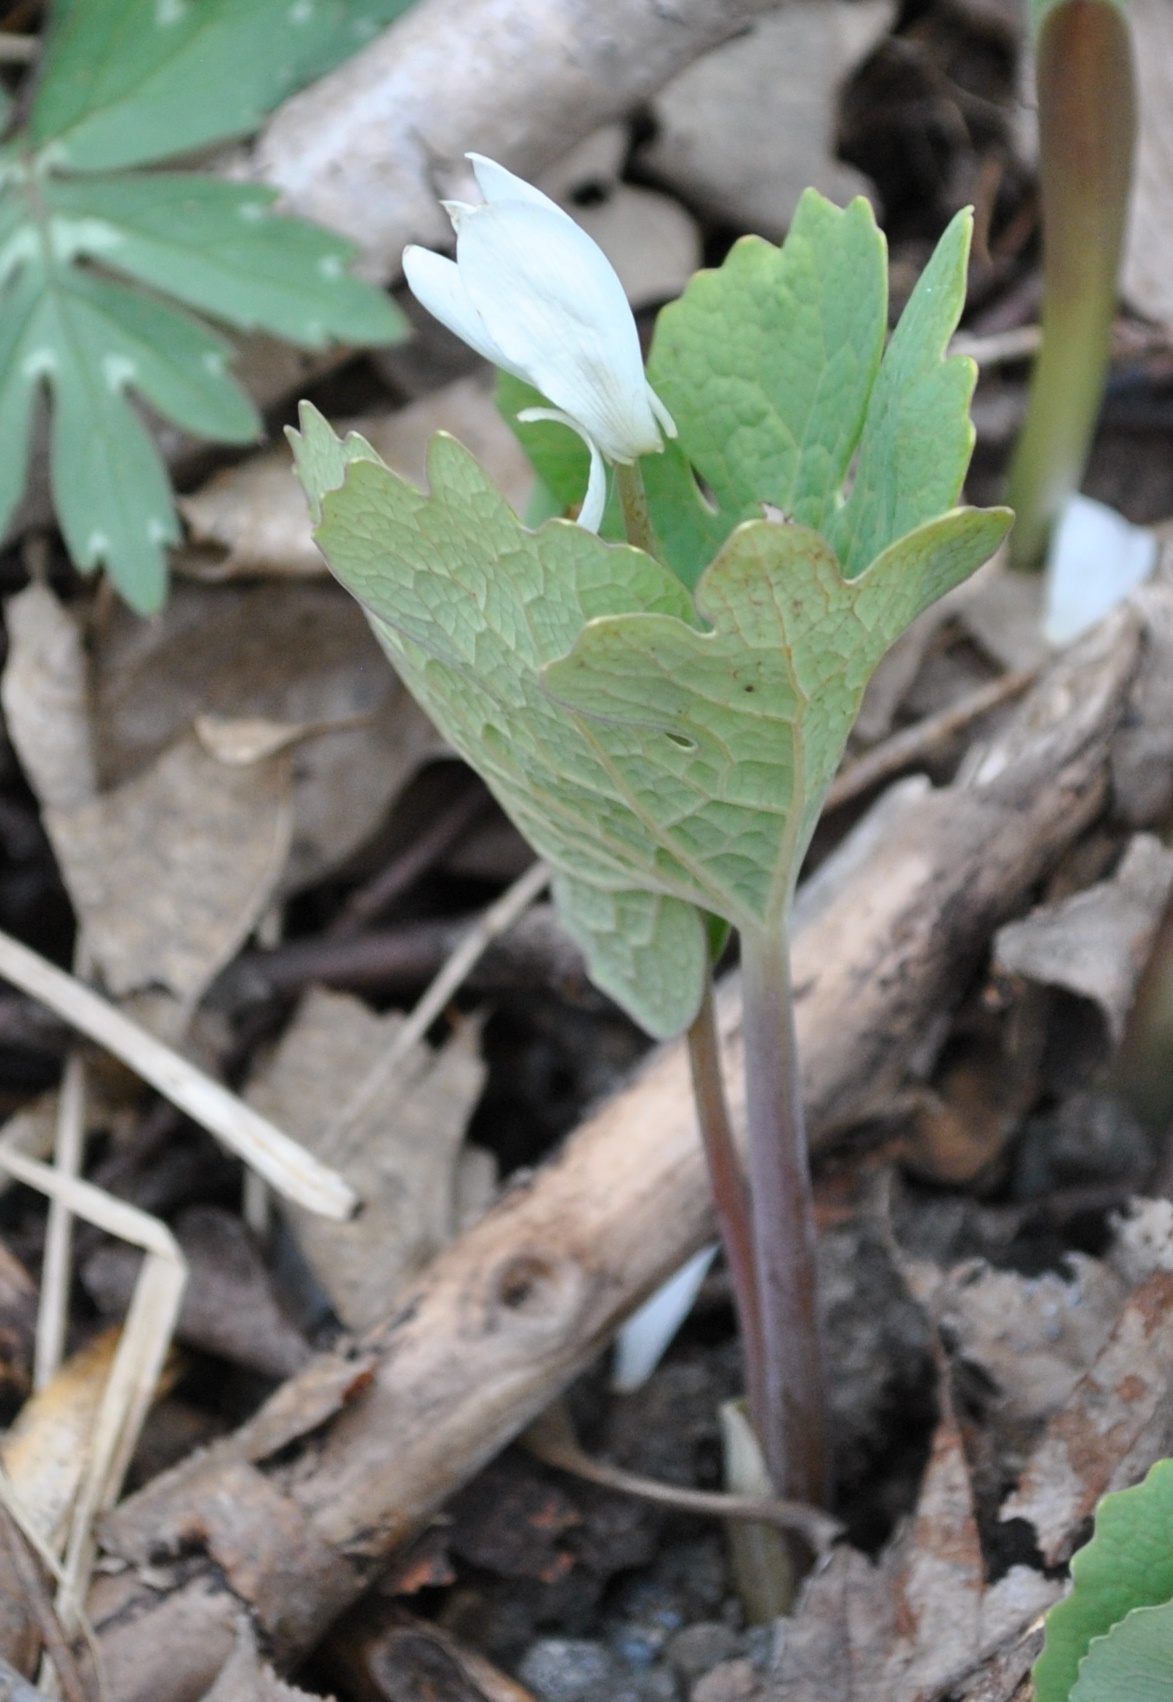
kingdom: Plantae
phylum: Tracheophyta
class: Magnoliopsida
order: Ranunculales
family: Papaveraceae
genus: Sanguinaria
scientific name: Sanguinaria canadensis
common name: Bloodroot
